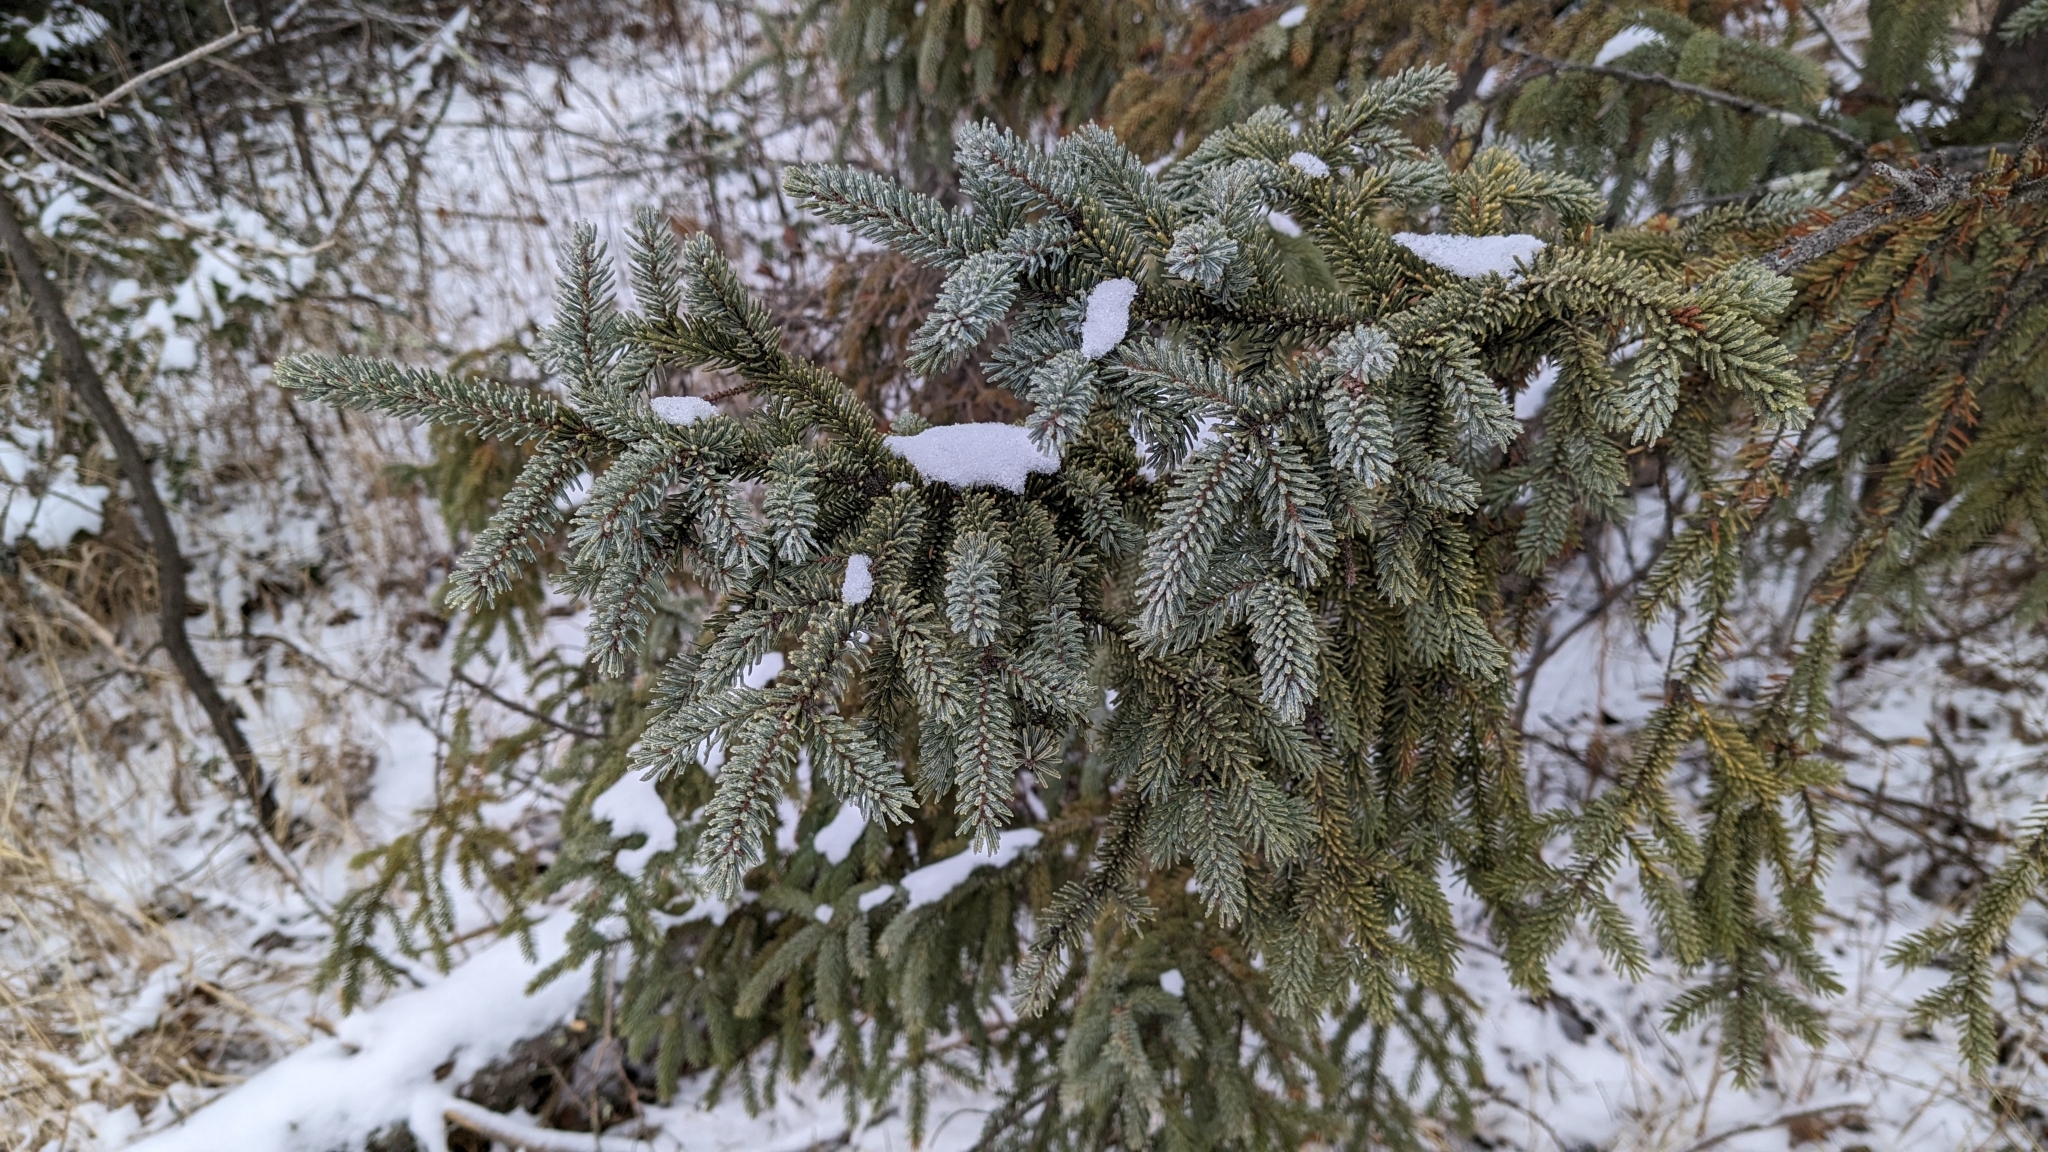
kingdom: Plantae
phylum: Tracheophyta
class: Pinopsida
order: Pinales
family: Pinaceae
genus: Picea
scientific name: Picea mariana
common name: Black spruce
